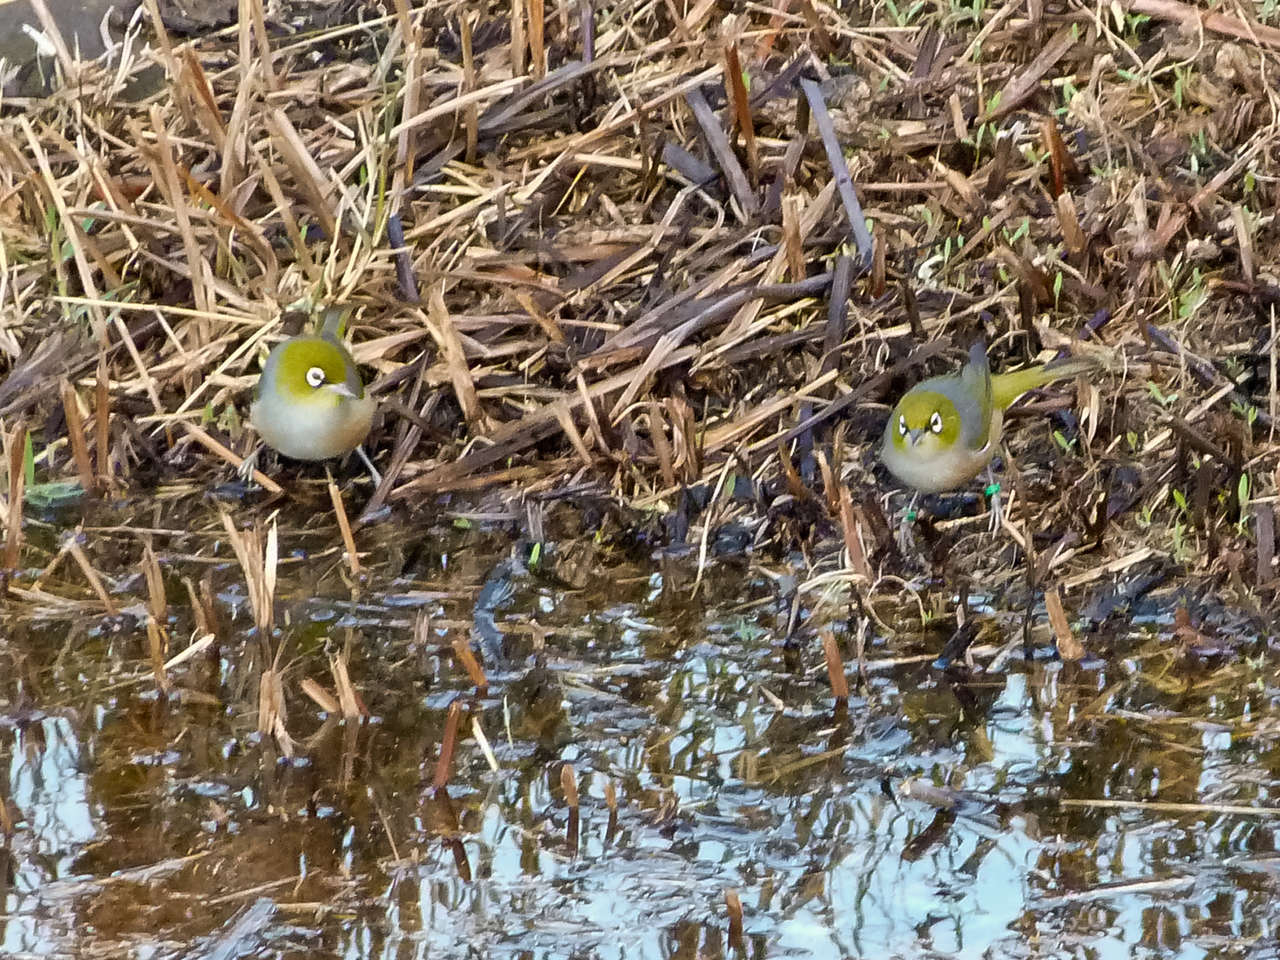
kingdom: Animalia
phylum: Chordata
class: Aves
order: Passeriformes
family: Zosteropidae
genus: Zosterops
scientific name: Zosterops lateralis
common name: Silvereye
